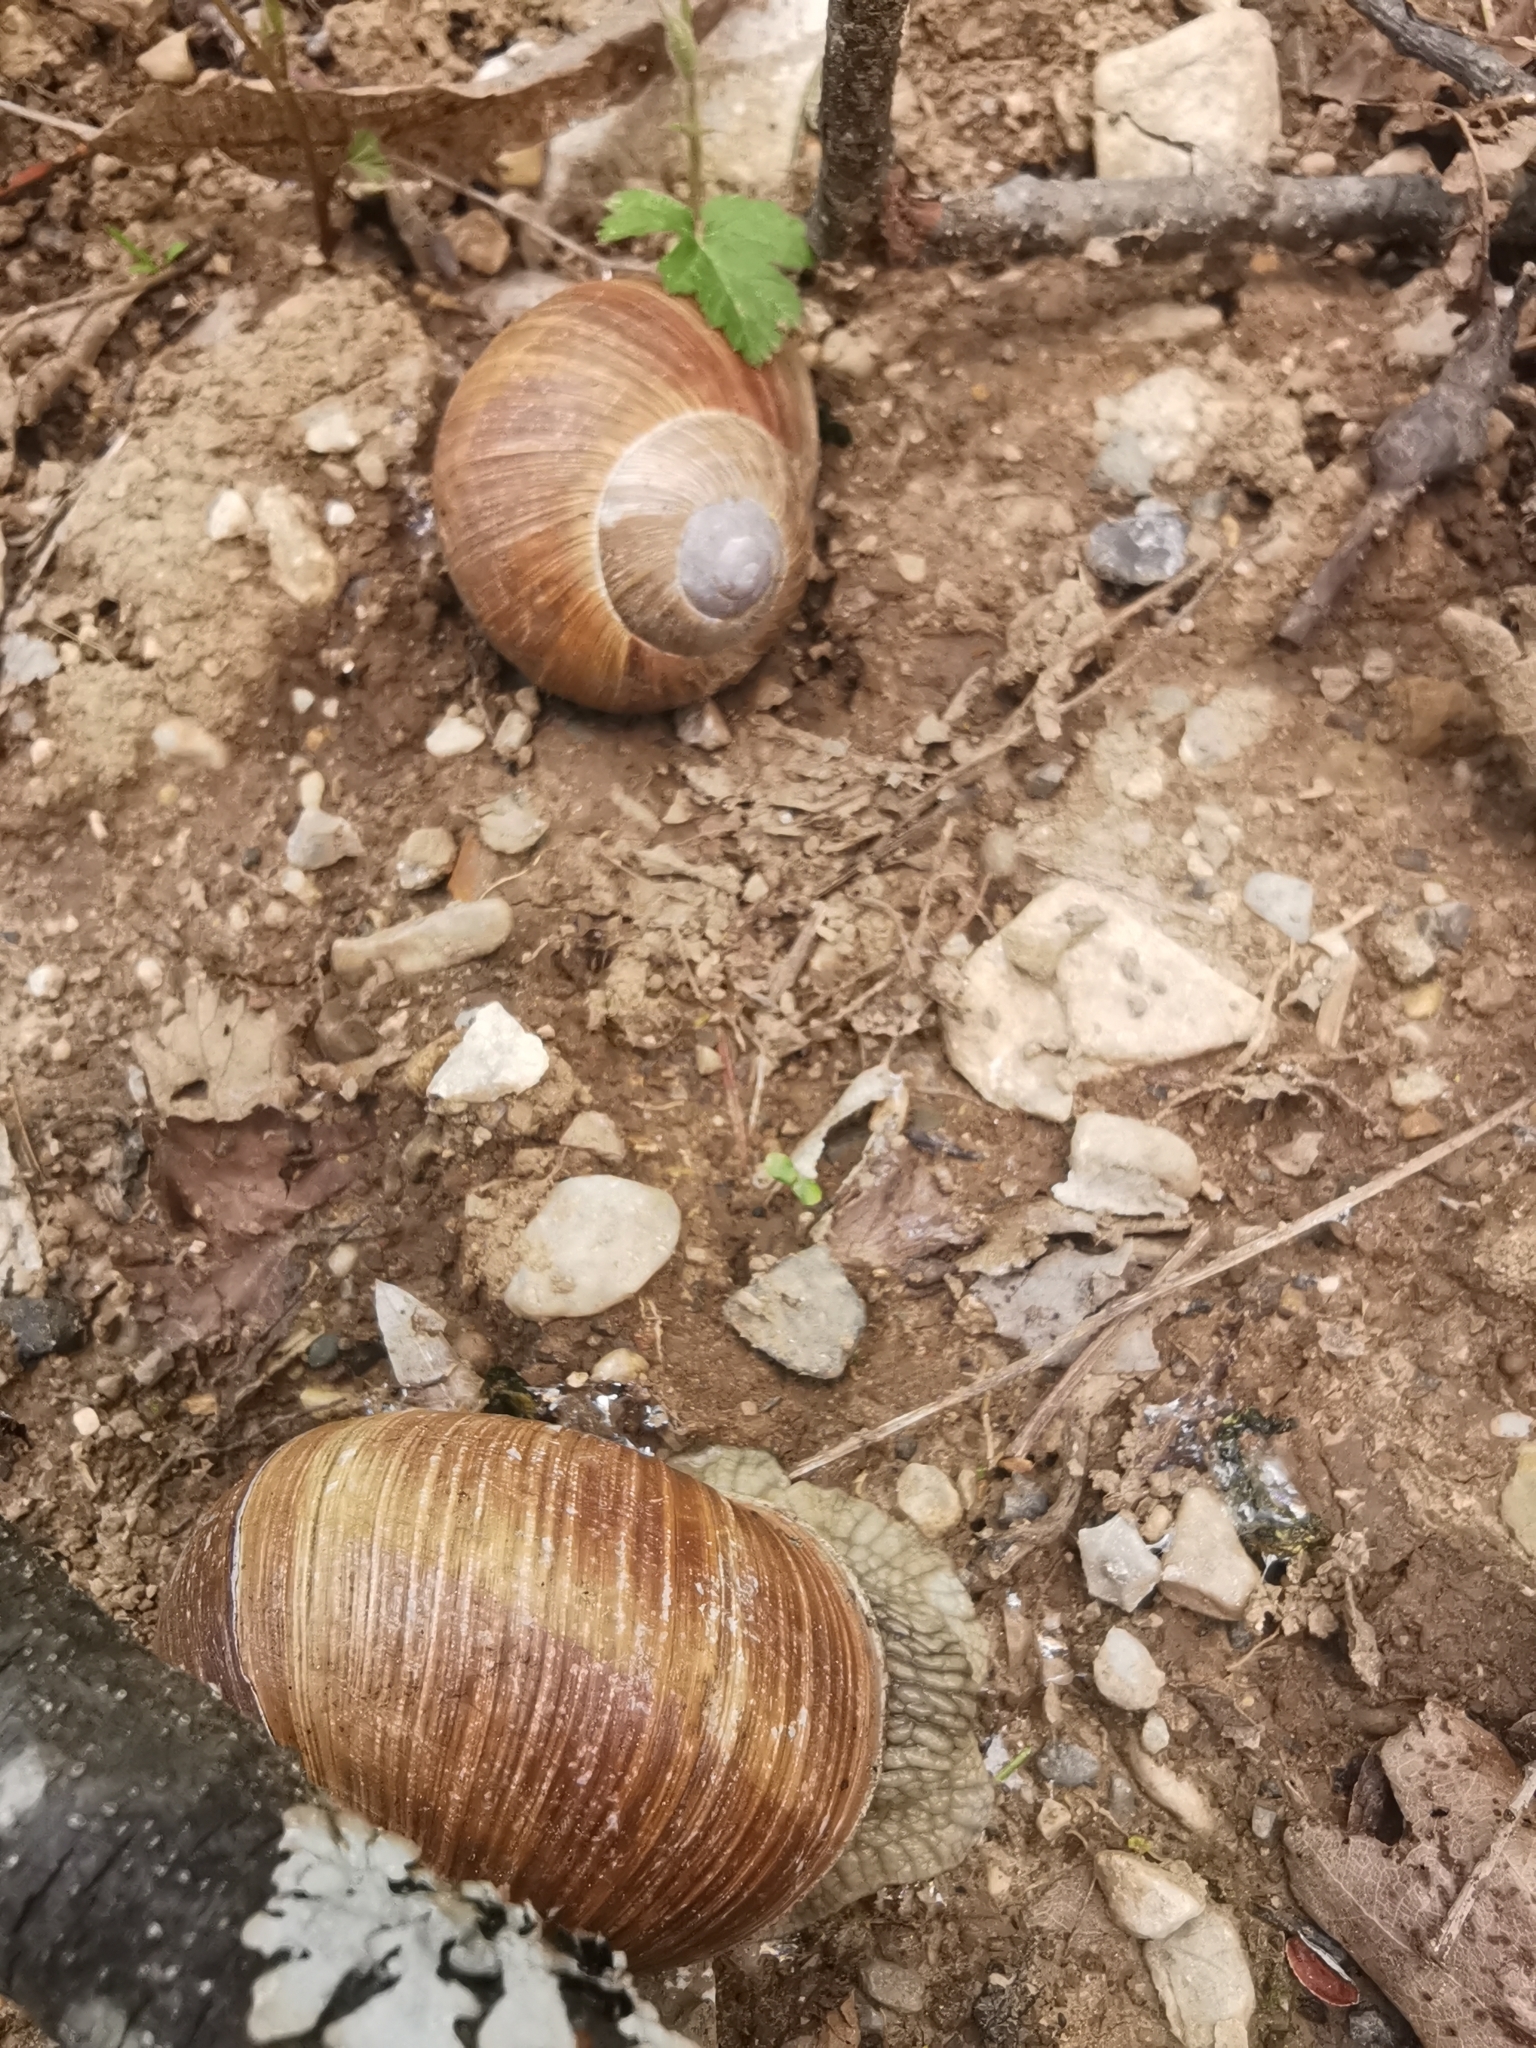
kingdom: Animalia
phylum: Mollusca
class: Gastropoda
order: Stylommatophora
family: Helicidae
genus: Helix
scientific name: Helix pomatia
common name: Roman snail
